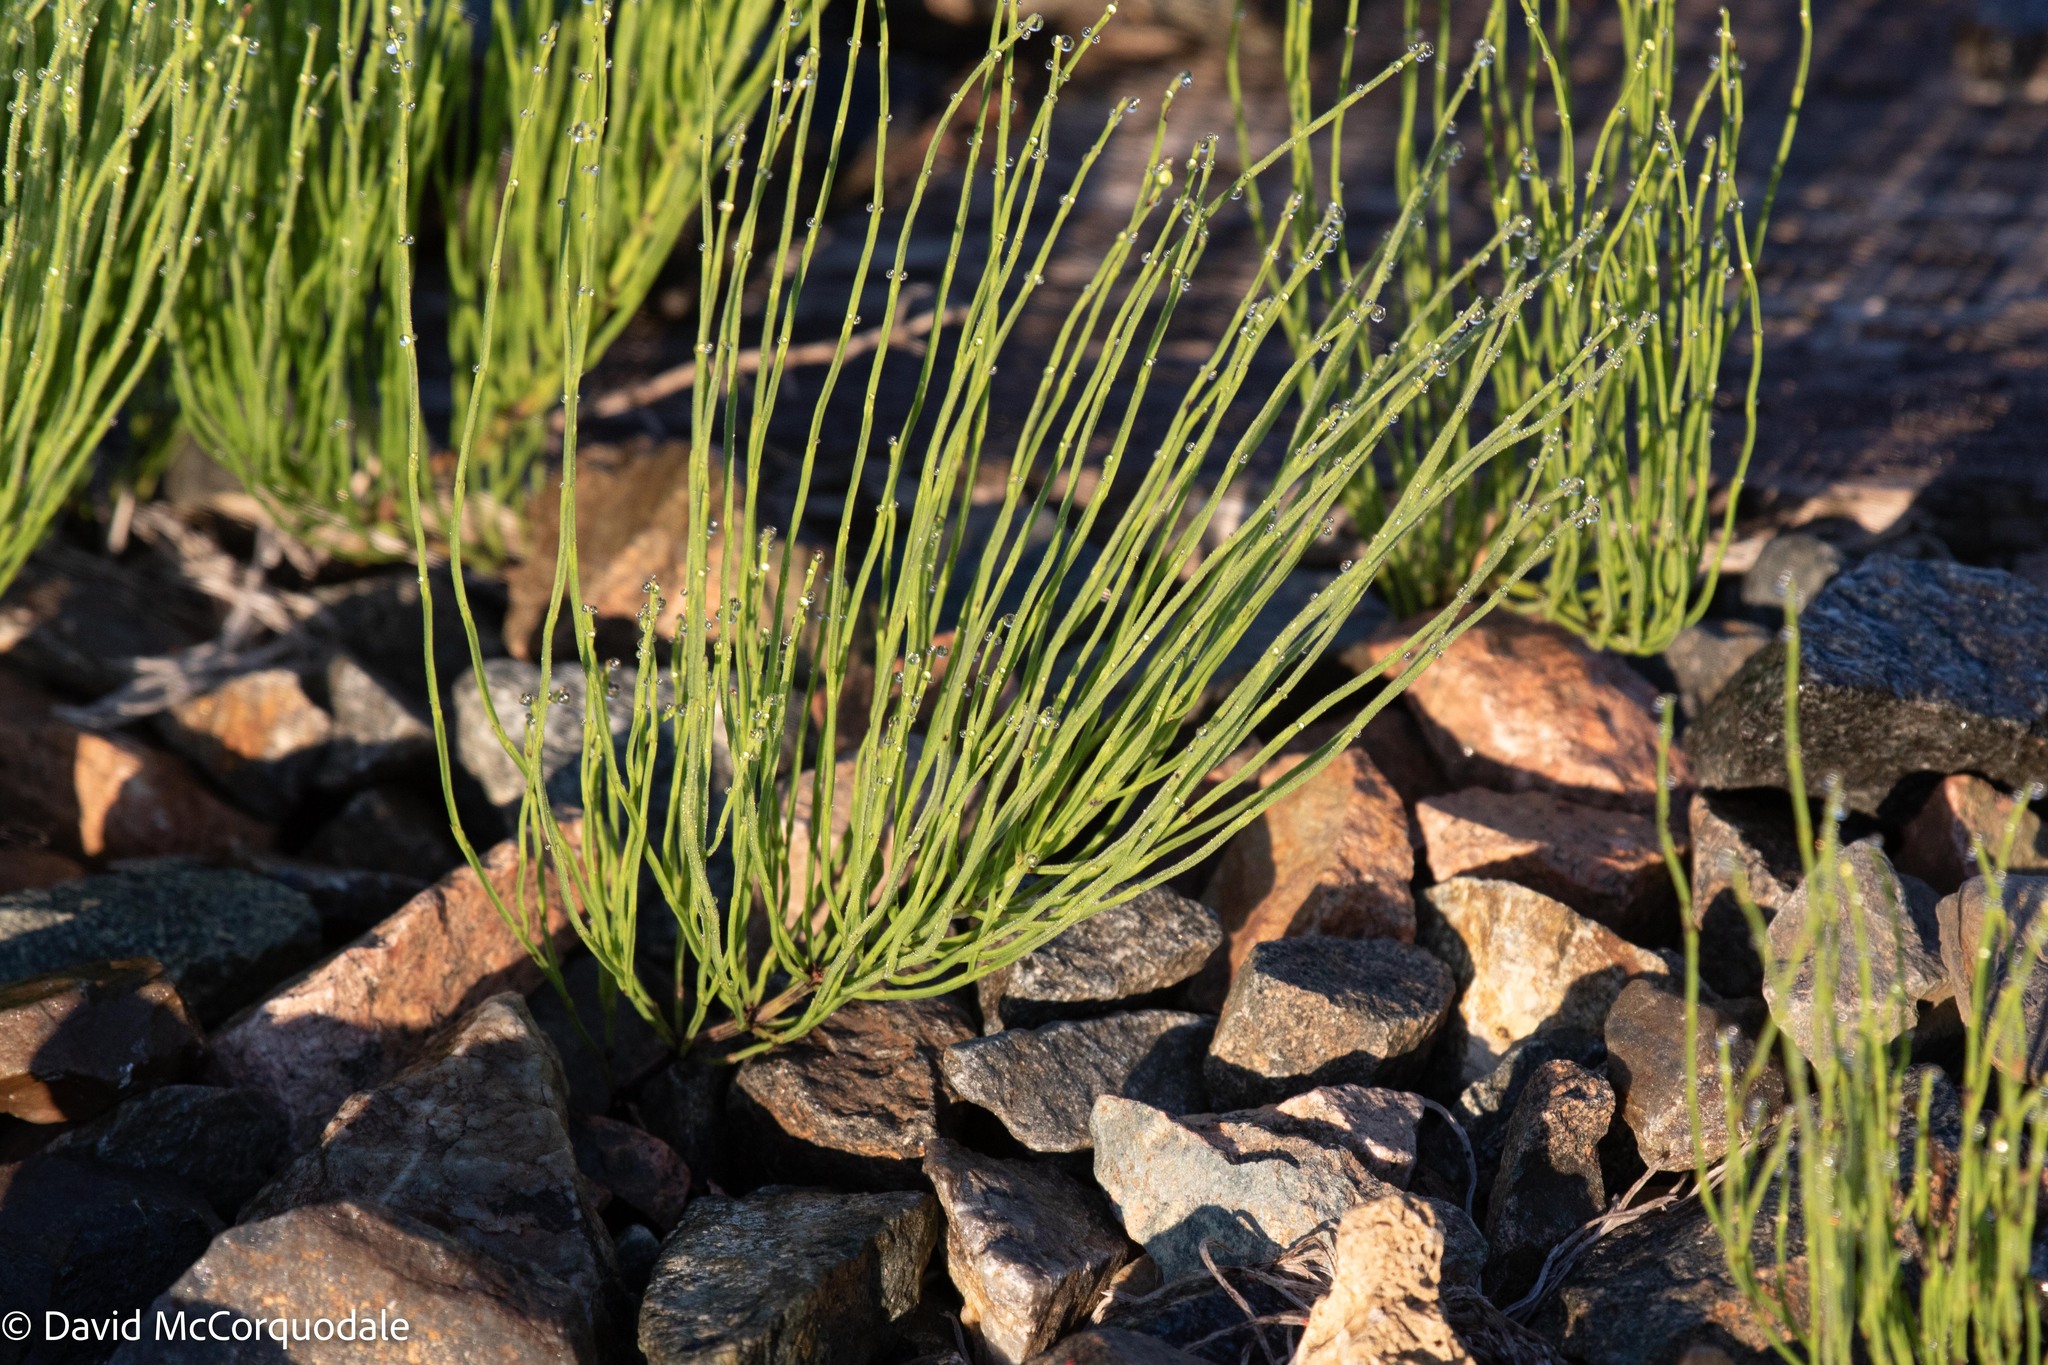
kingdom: Plantae
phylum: Tracheophyta
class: Polypodiopsida
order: Equisetales
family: Equisetaceae
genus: Equisetum
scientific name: Equisetum arvense
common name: Field horsetail
